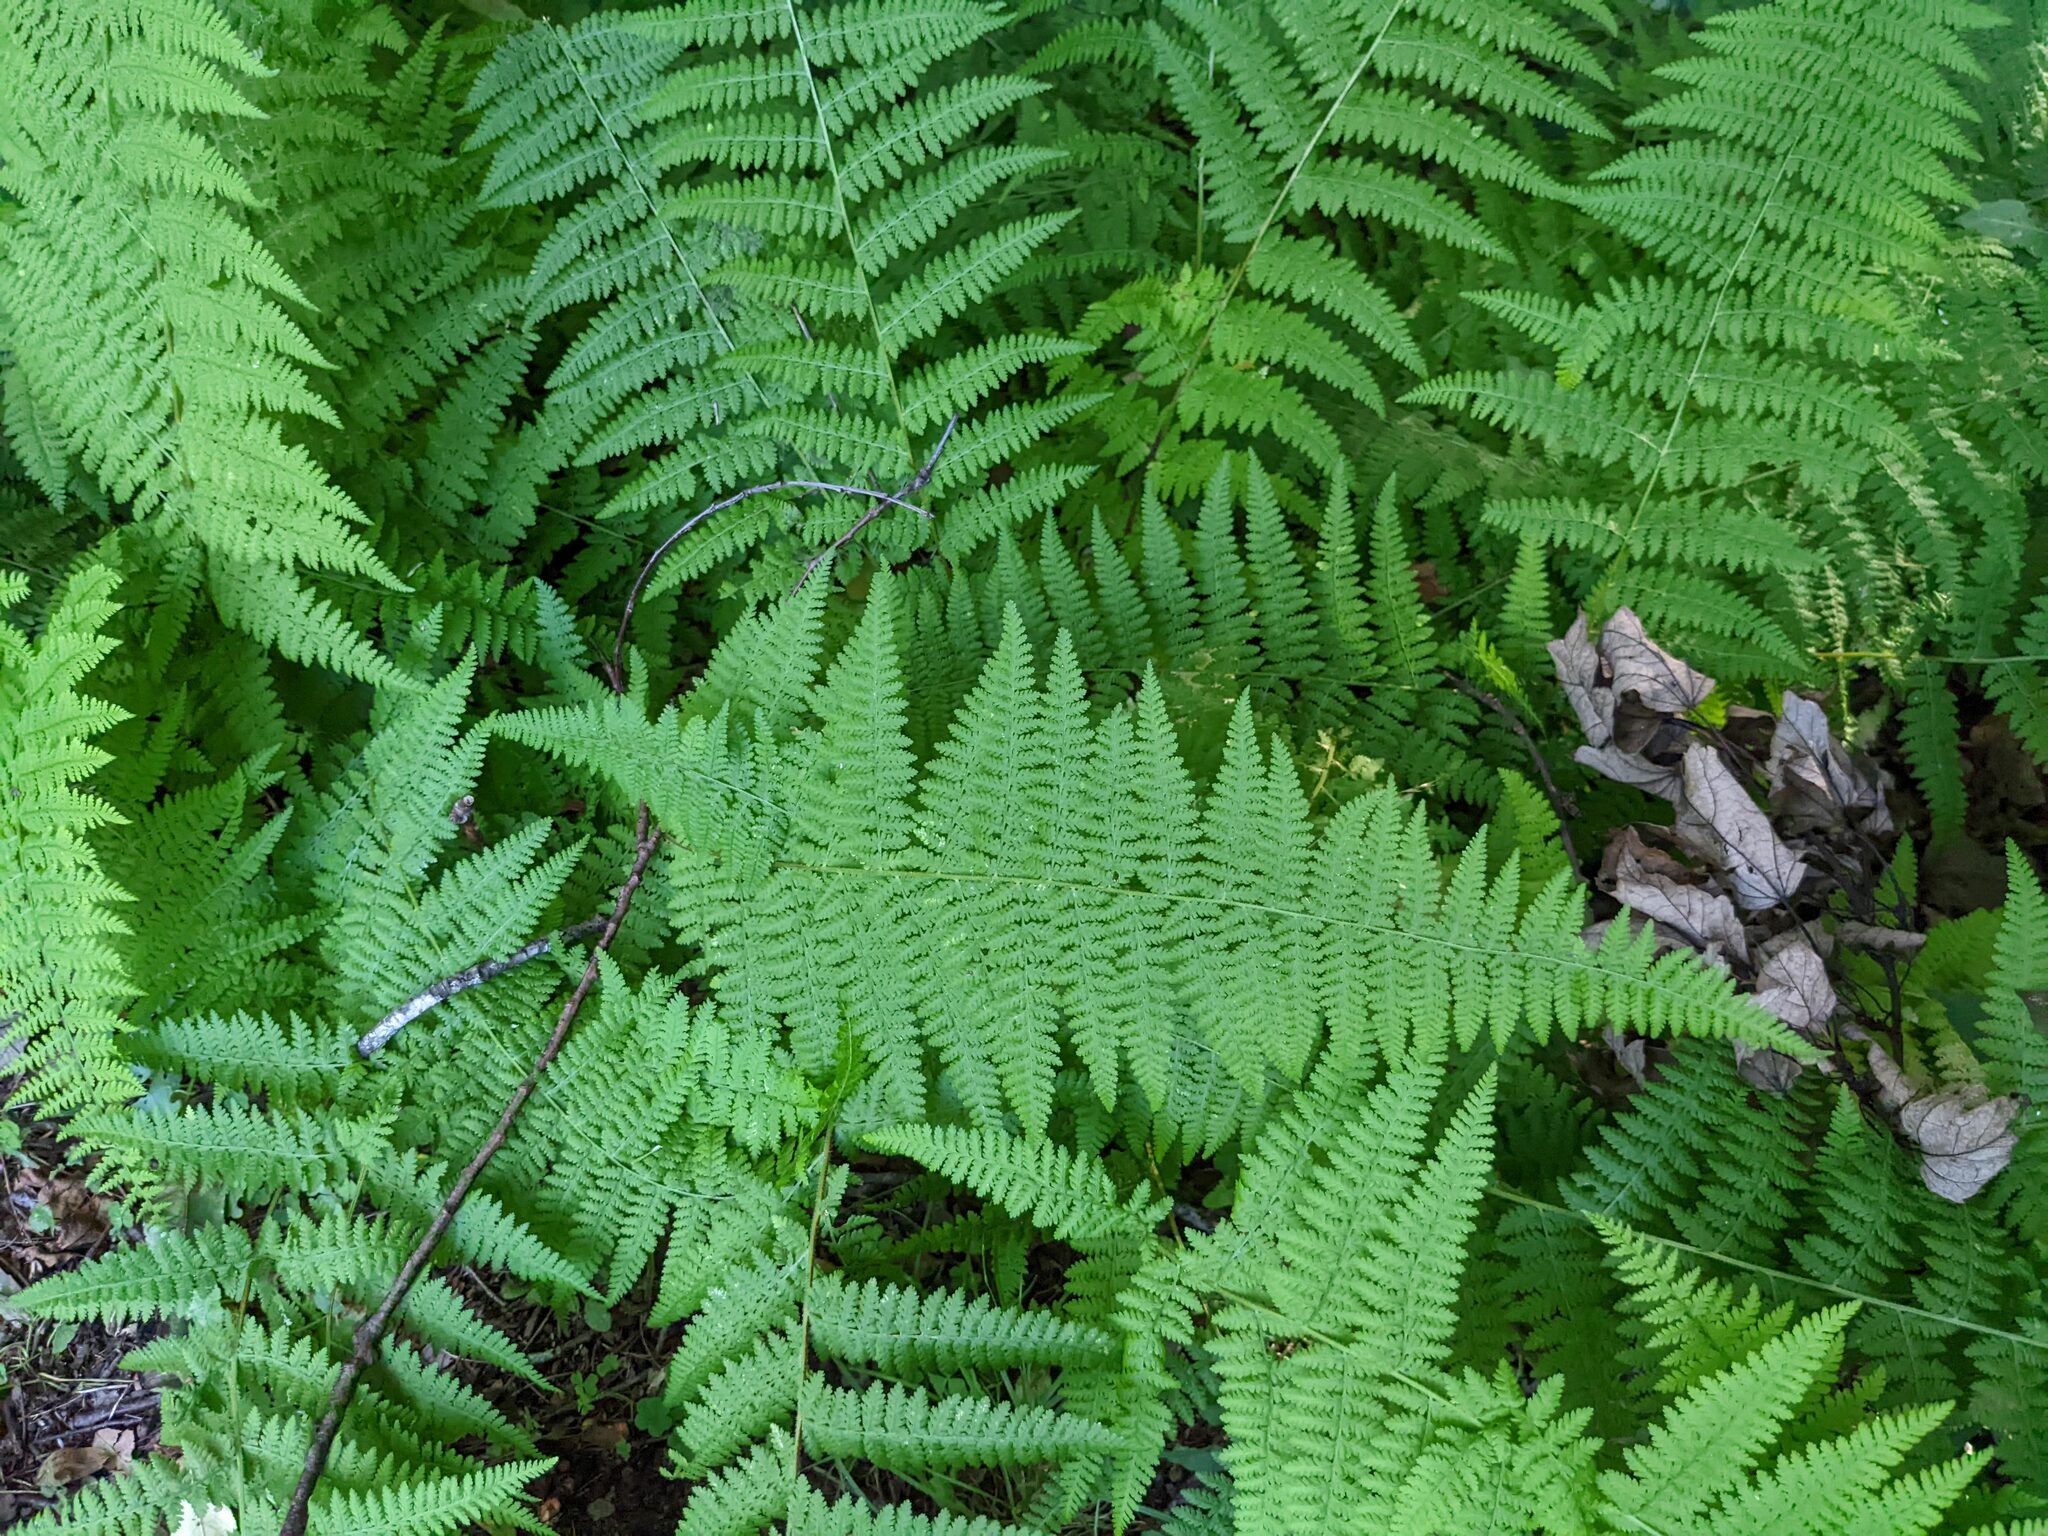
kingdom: Plantae
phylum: Tracheophyta
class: Polypodiopsida
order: Polypodiales
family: Dennstaedtiaceae
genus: Sitobolium
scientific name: Sitobolium punctilobum
